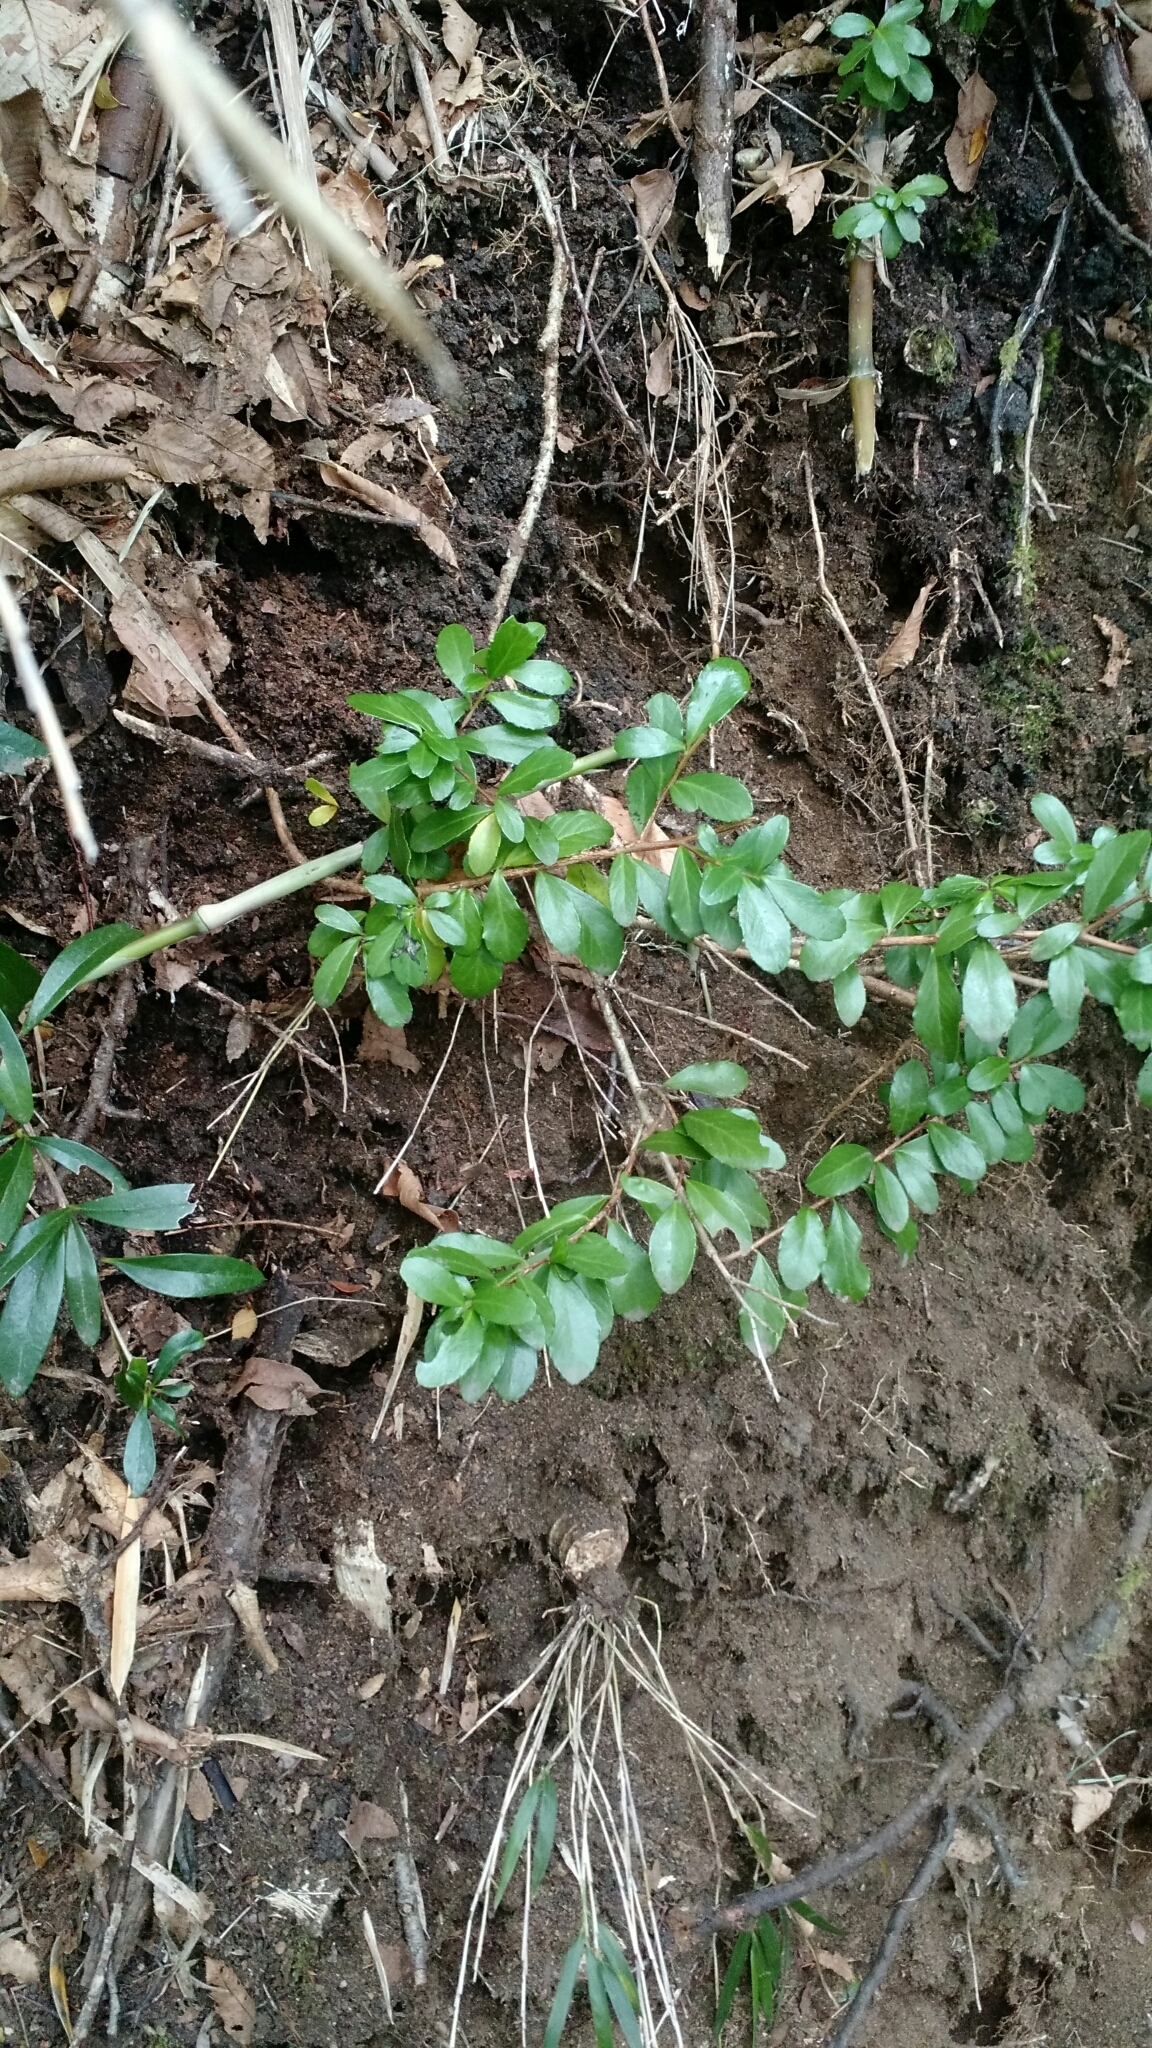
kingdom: Plantae
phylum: Tracheophyta
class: Magnoliopsida
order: Malpighiales
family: Salicaceae
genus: Azara
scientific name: Azara alpina
